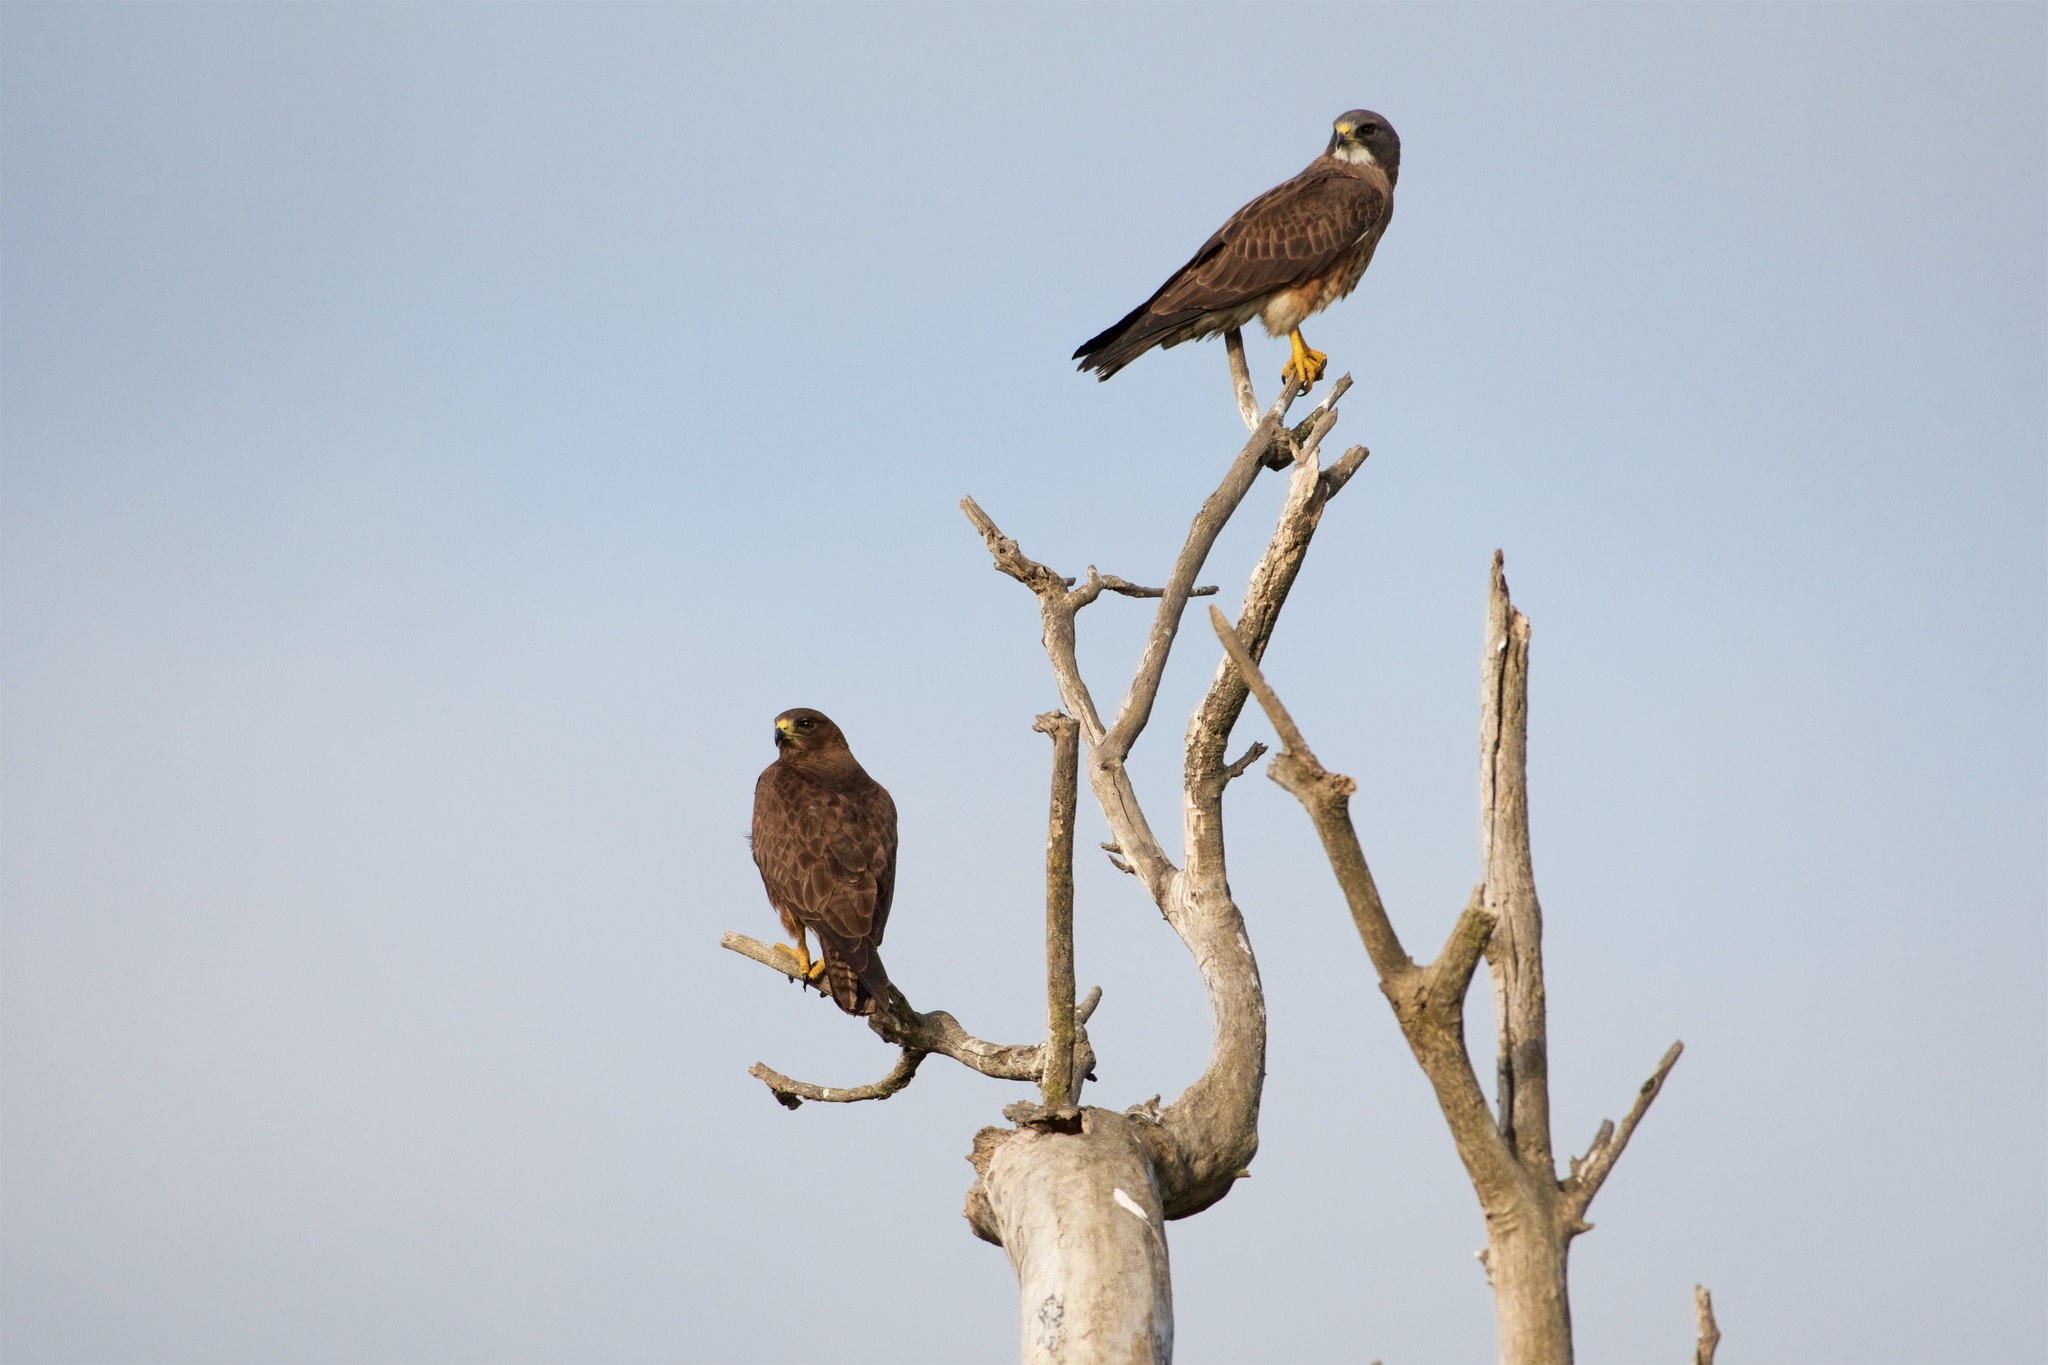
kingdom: Animalia
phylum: Chordata
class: Aves
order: Accipitriformes
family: Accipitridae
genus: Buteo
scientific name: Buteo swainsoni
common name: Swainson's hawk
